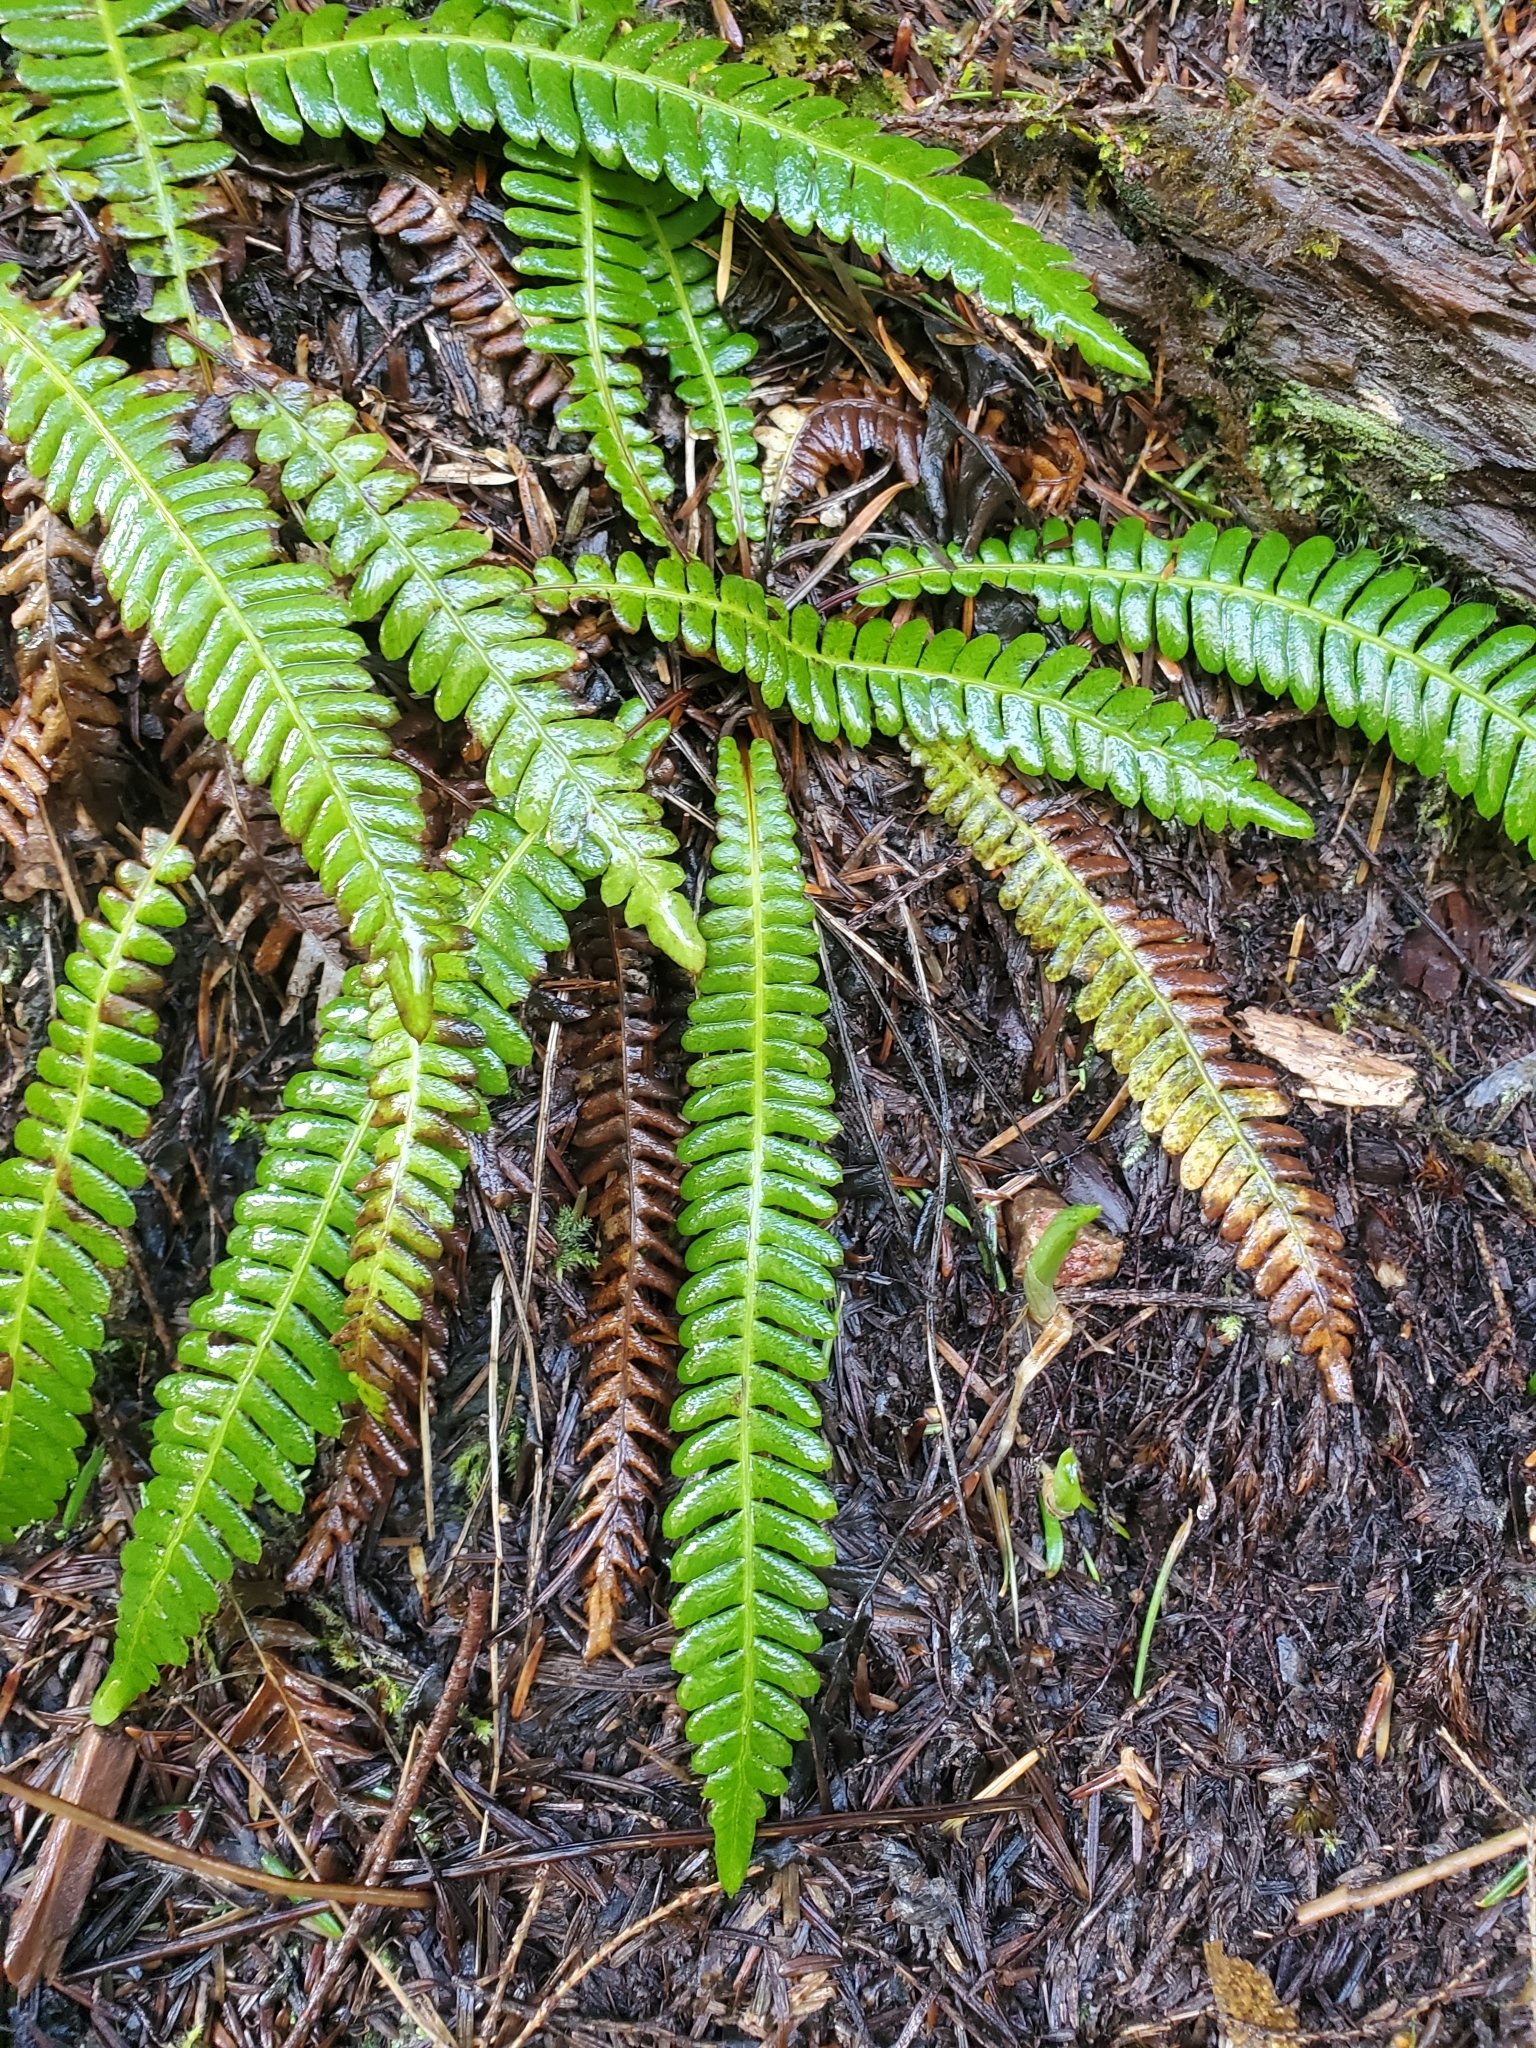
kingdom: Plantae
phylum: Tracheophyta
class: Polypodiopsida
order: Polypodiales
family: Blechnaceae
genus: Struthiopteris
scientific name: Struthiopteris spicant
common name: Deer fern
